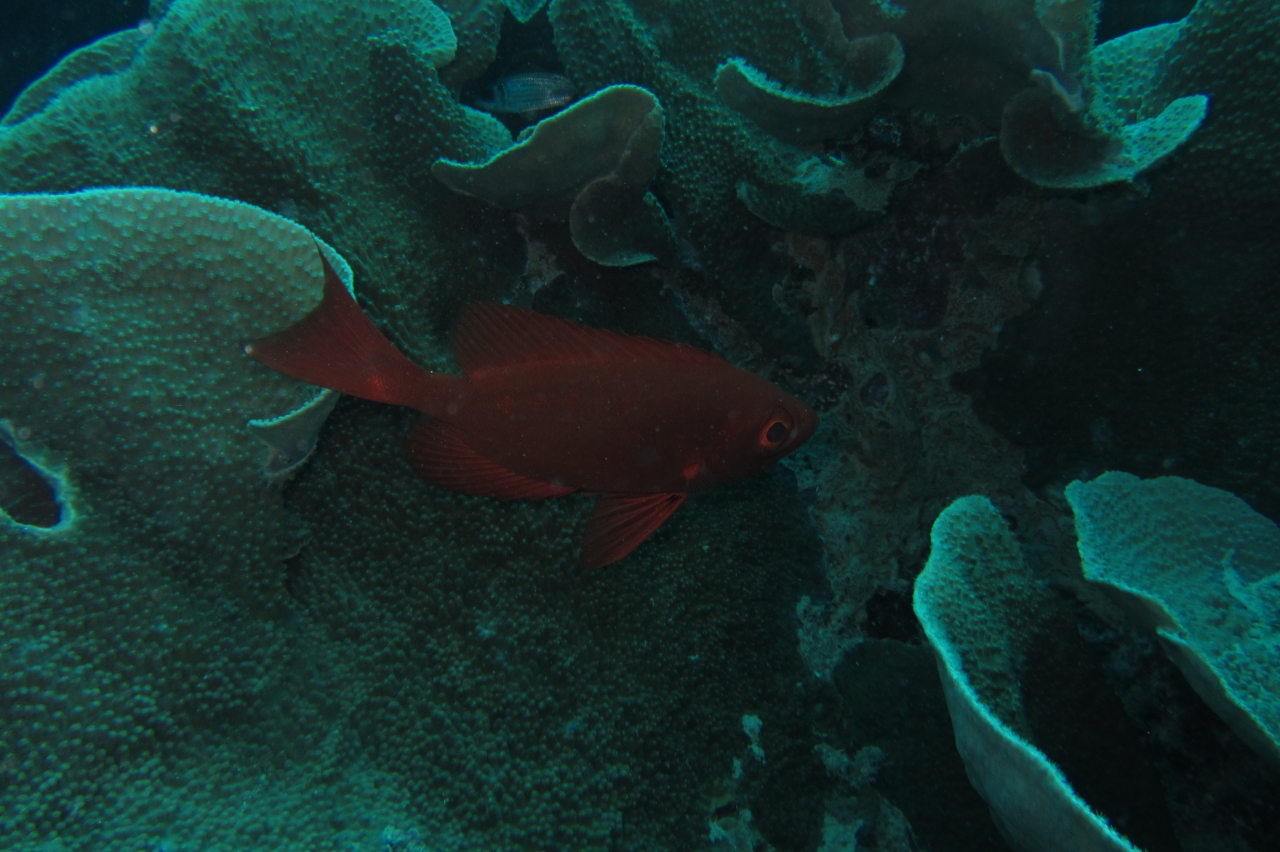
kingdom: Animalia
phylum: Chordata
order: Perciformes
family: Priacanthidae
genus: Priacanthus
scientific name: Priacanthus hamrur
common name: Moontail bullseye
